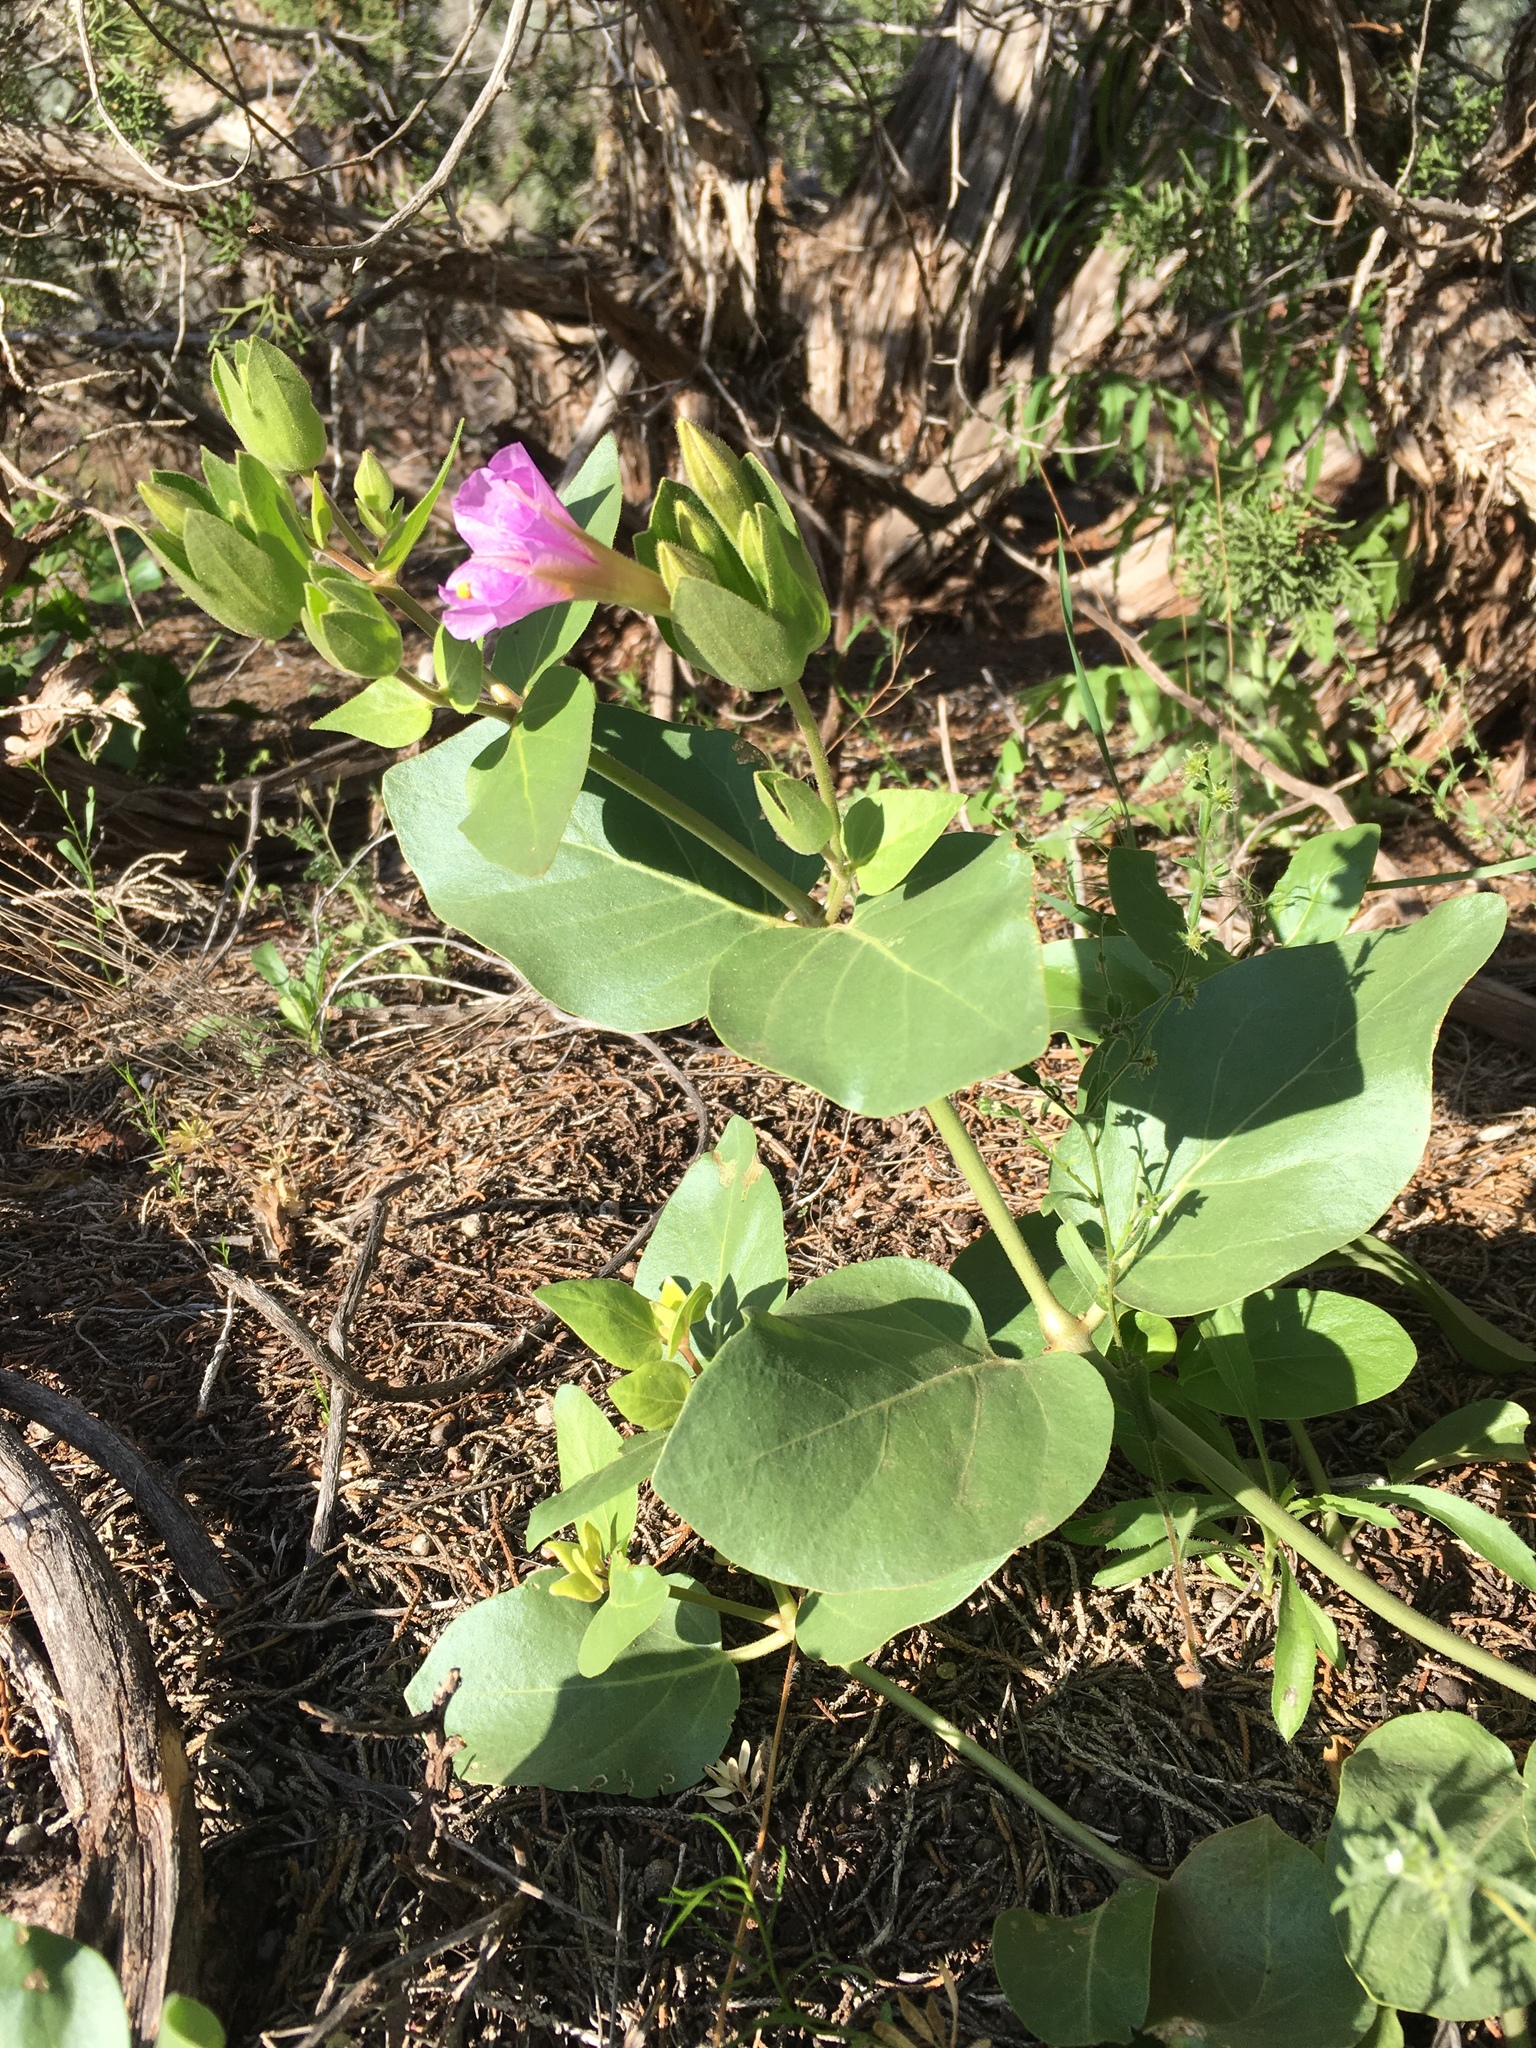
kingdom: Plantae
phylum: Tracheophyta
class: Magnoliopsida
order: Caryophyllales
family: Nyctaginaceae
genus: Mirabilis
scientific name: Mirabilis multiflora
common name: Froebel's four-o'clock
